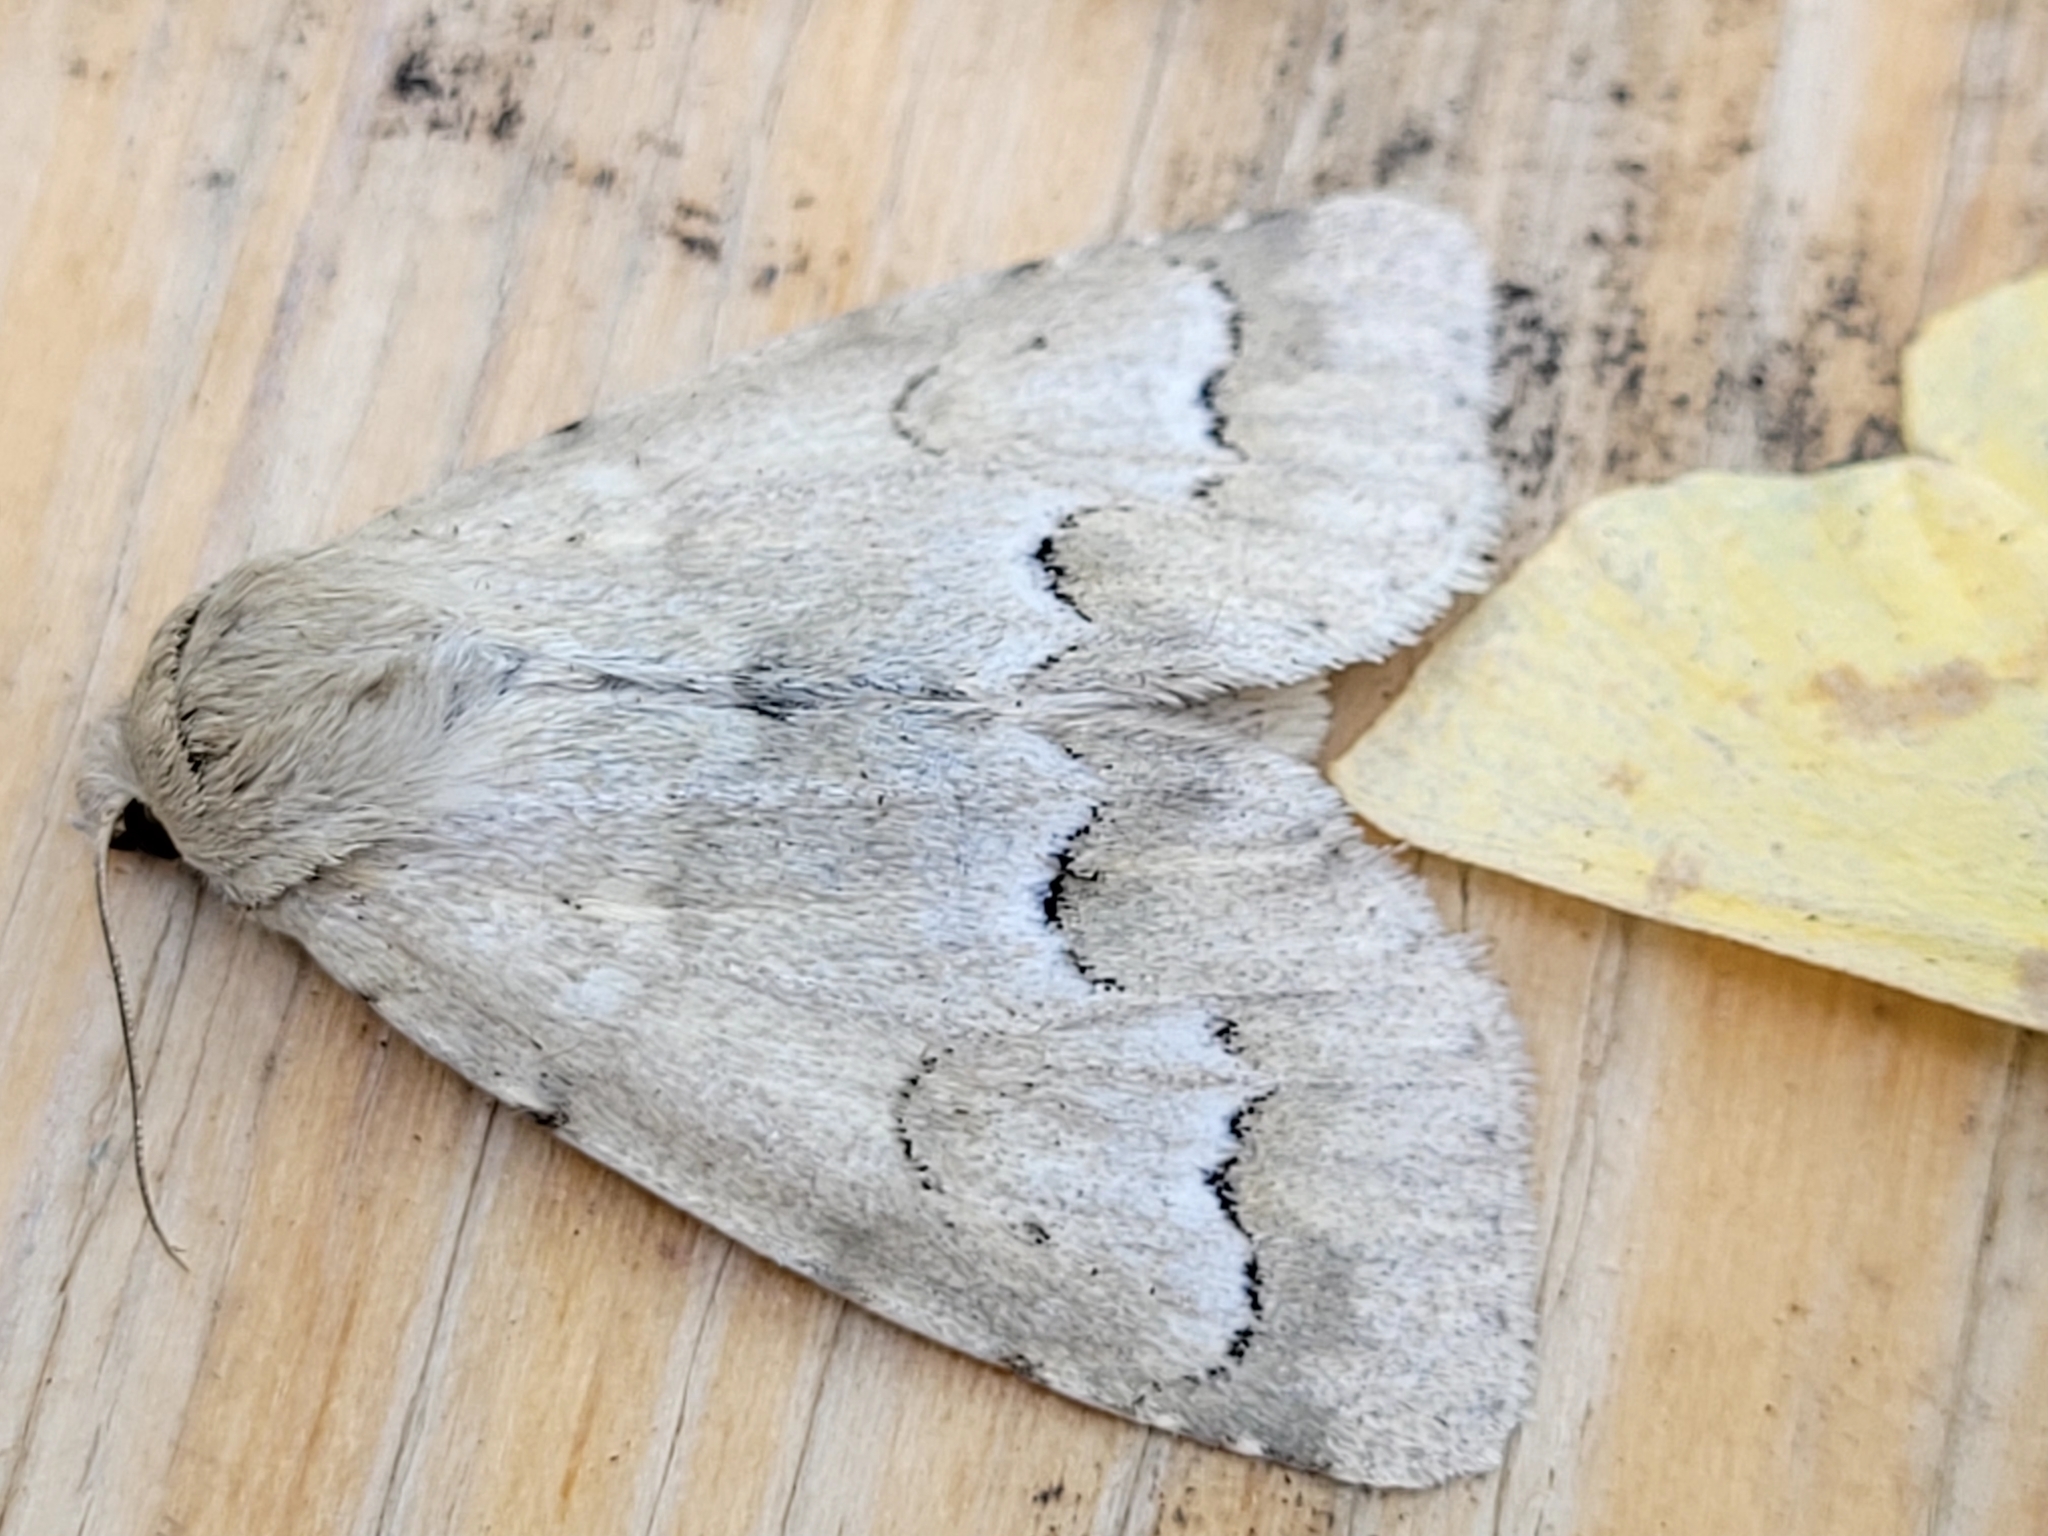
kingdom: Animalia
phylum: Arthropoda
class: Insecta
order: Lepidoptera
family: Noctuidae
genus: Acronicta
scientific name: Acronicta innotata
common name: Unmarked dagger
